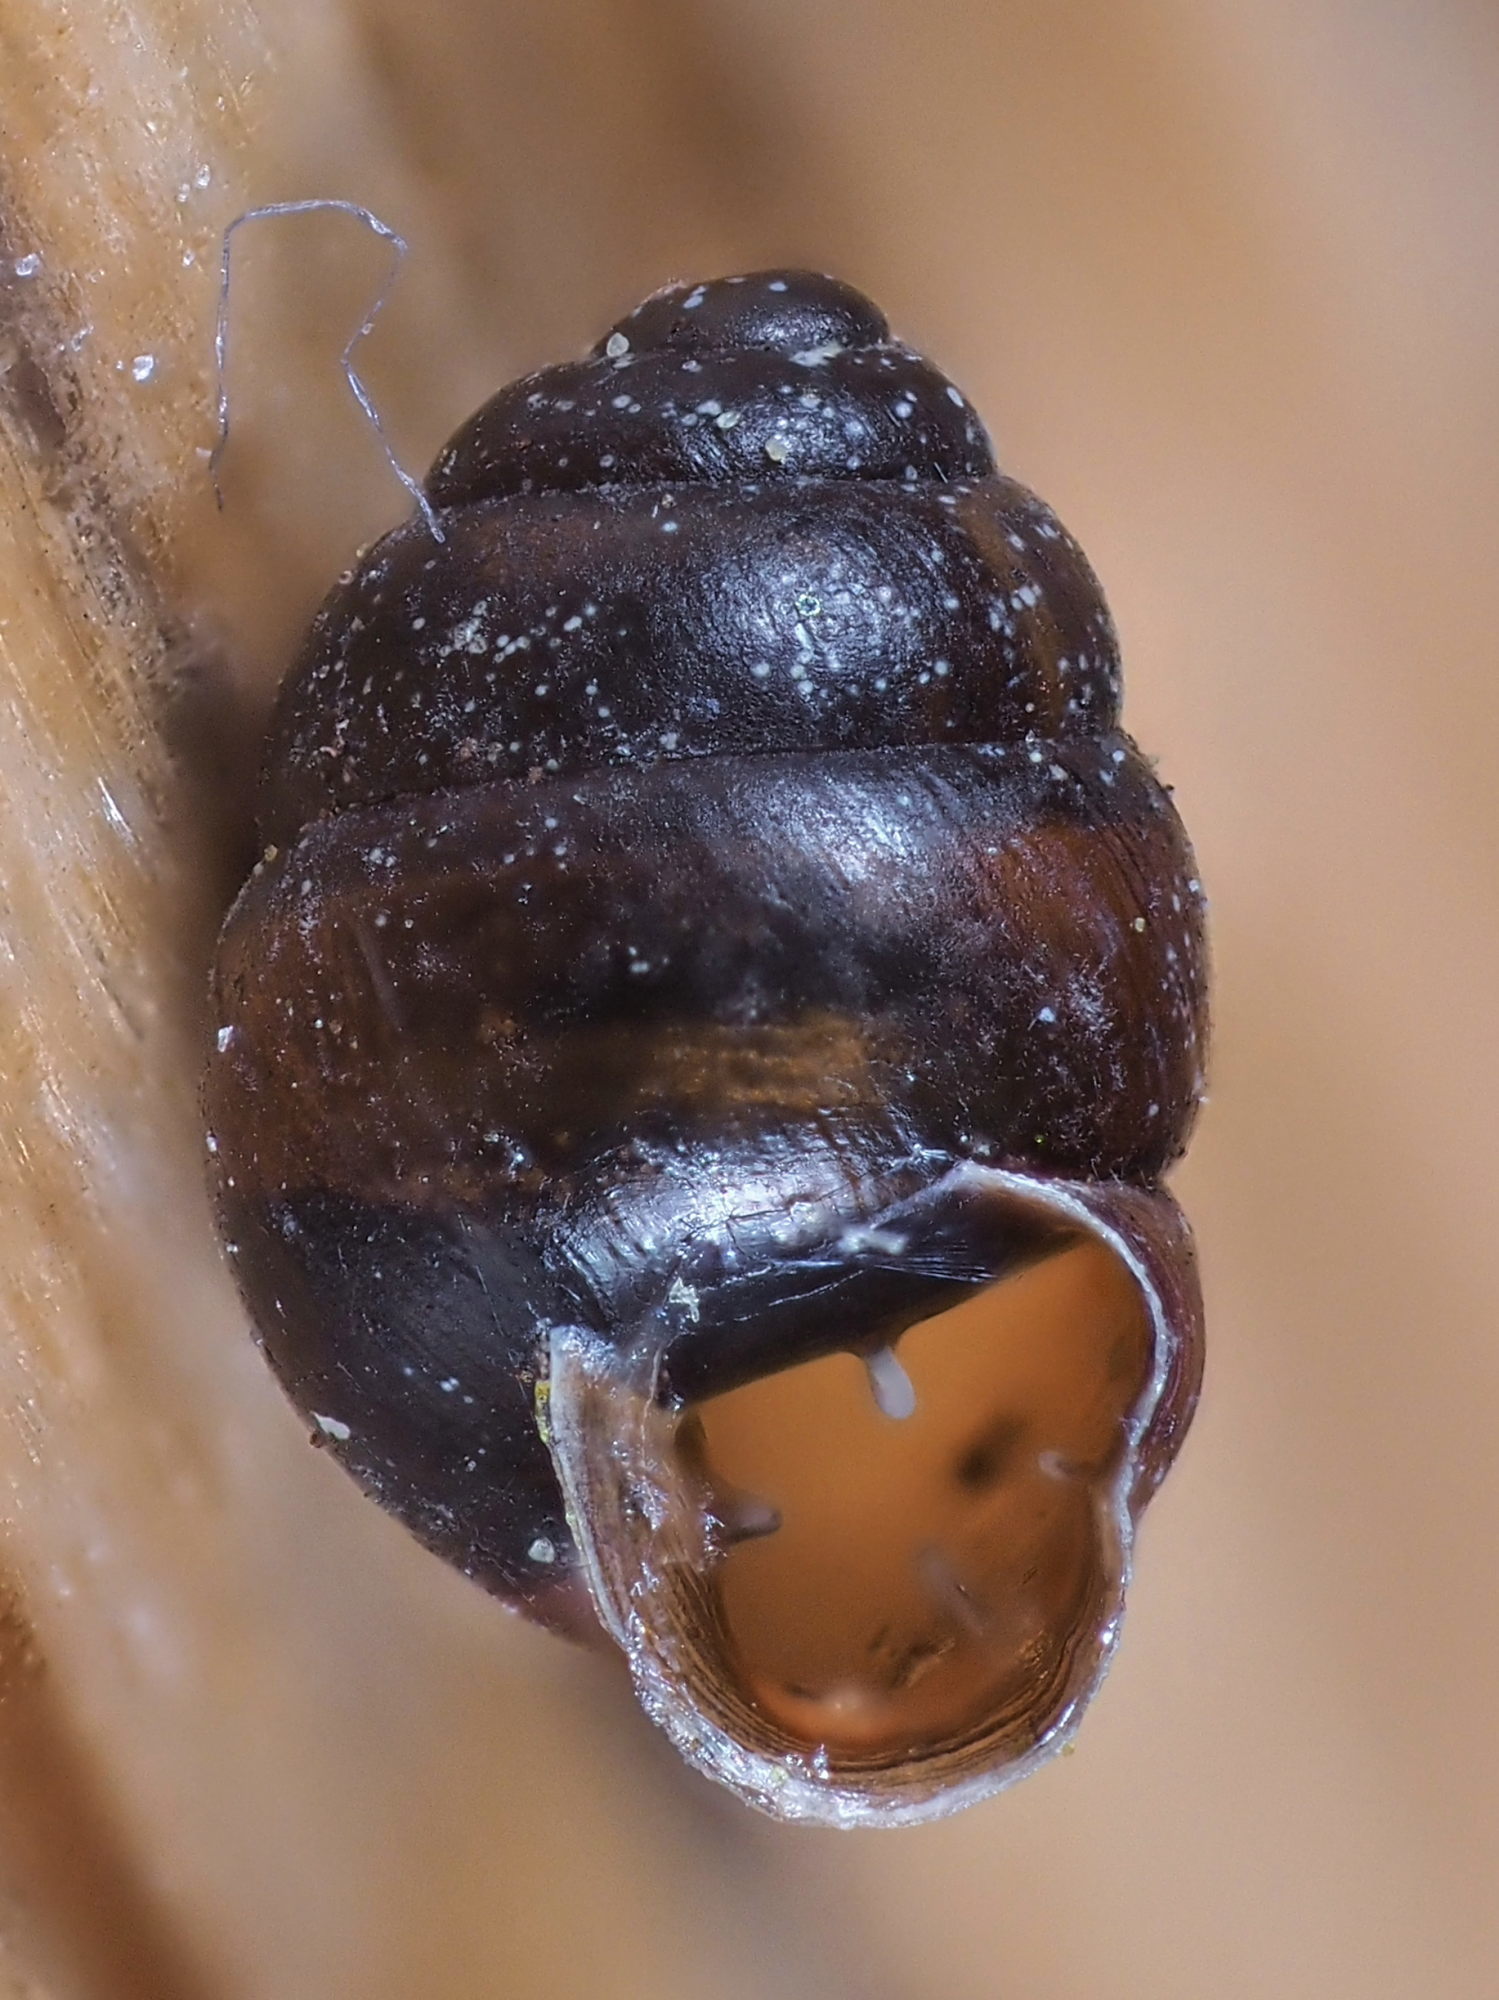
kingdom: Animalia
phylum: Mollusca
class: Gastropoda
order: Stylommatophora
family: Vertiginidae
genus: Vertigo
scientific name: Vertigo moulinsiana
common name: Desmoulin's whorl snail
